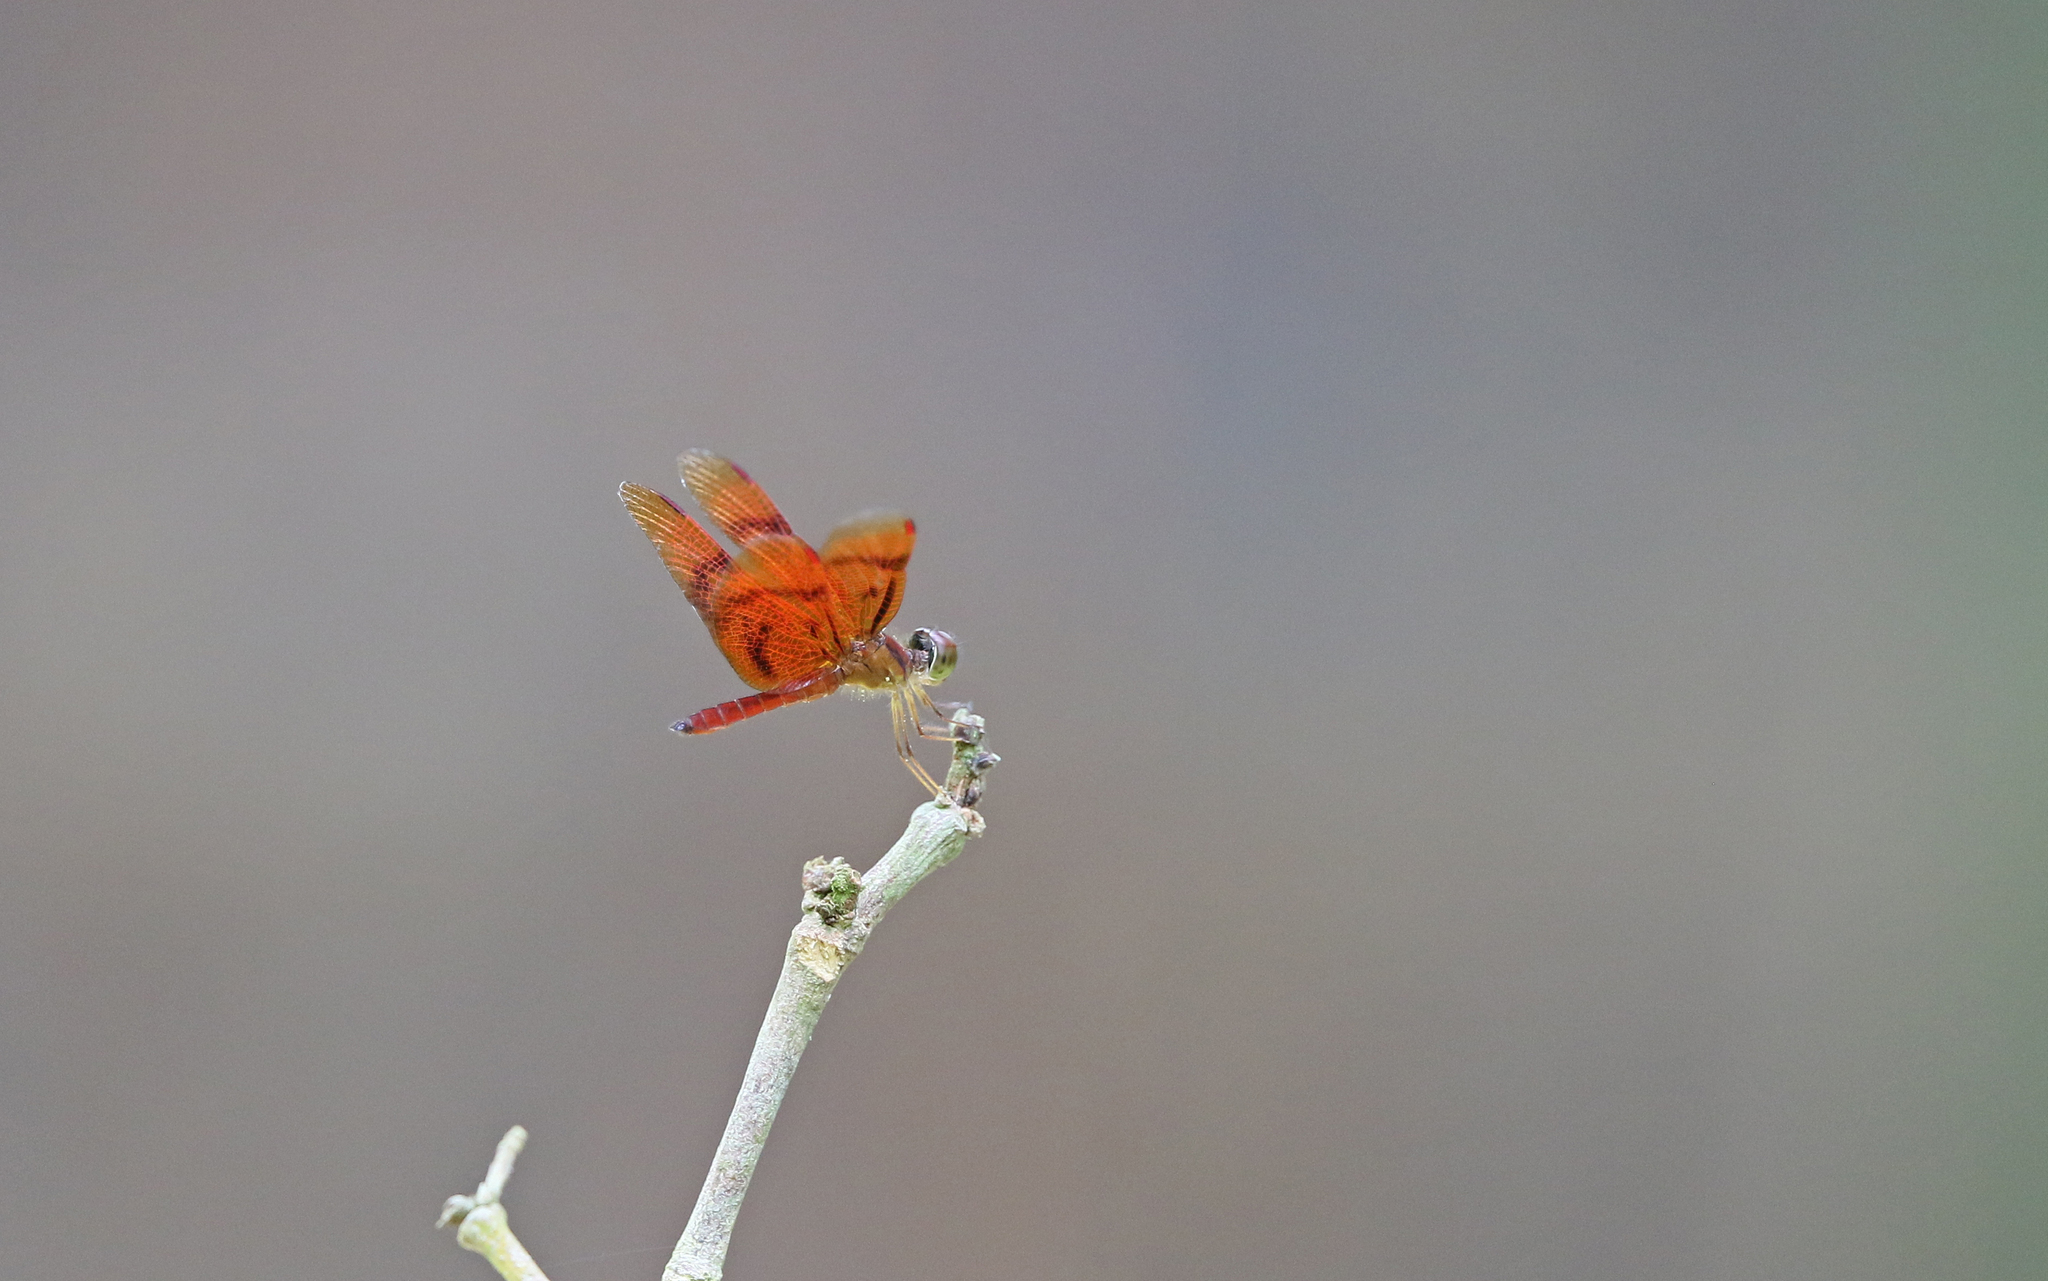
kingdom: Animalia
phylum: Arthropoda
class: Insecta
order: Odonata
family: Libellulidae
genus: Perithemis
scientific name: Perithemis rubita
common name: Ruby amberwing
